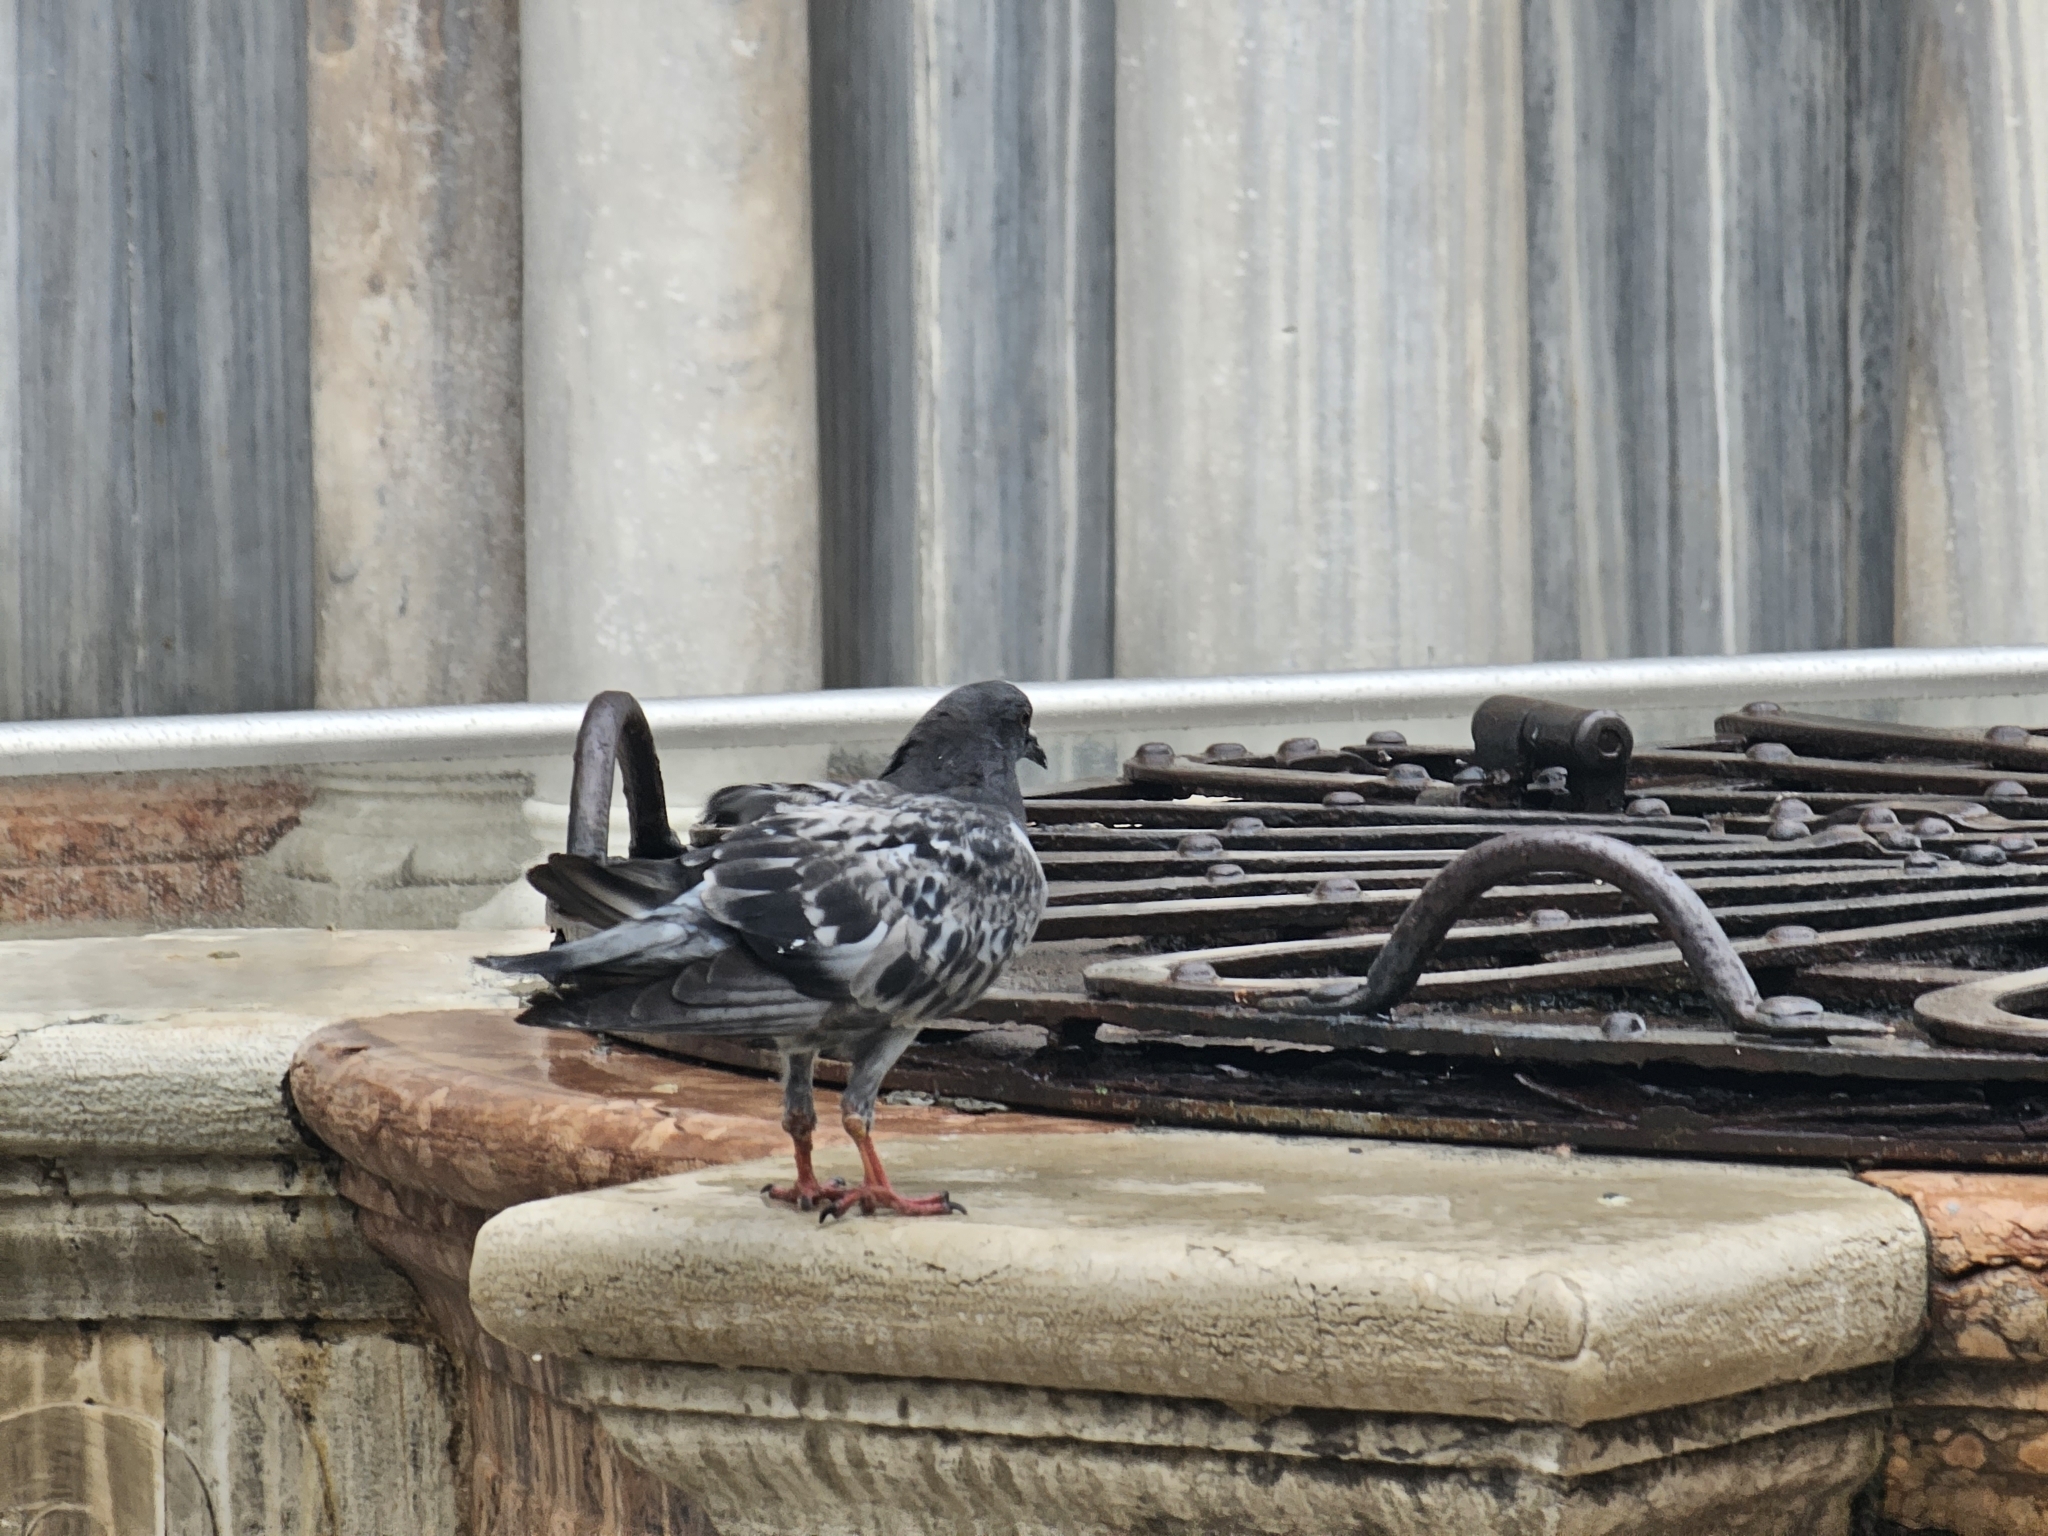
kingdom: Animalia
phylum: Chordata
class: Aves
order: Columbiformes
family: Columbidae
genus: Columba
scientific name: Columba livia
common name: Rock pigeon
